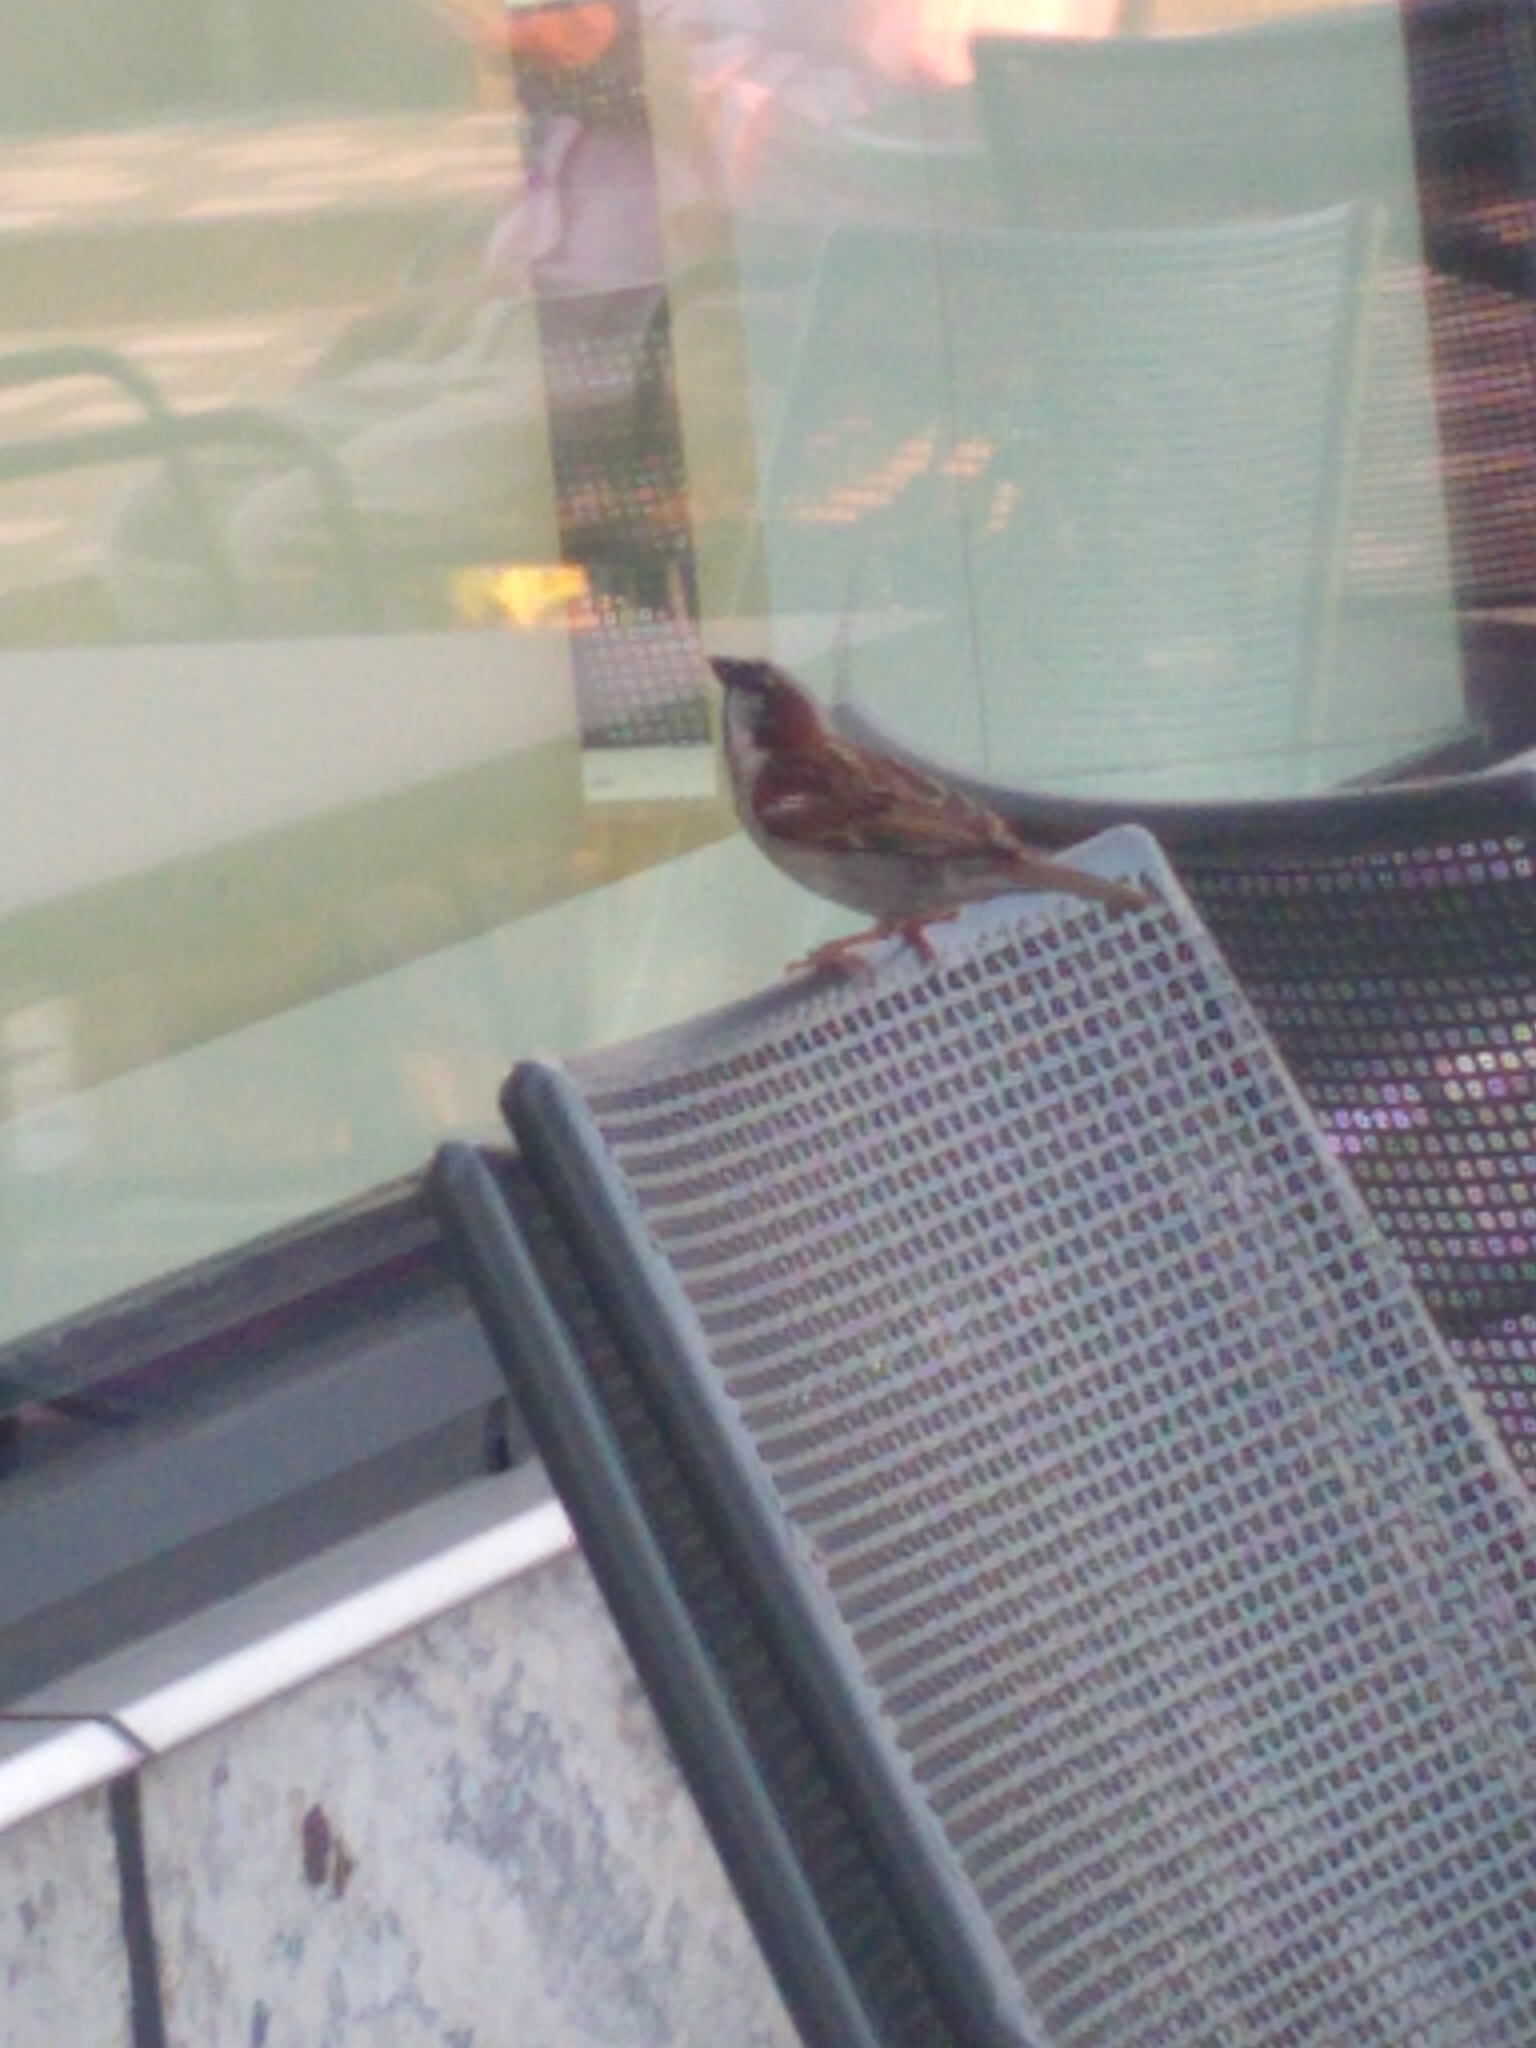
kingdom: Animalia
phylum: Chordata
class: Aves
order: Passeriformes
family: Passeridae
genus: Passer
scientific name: Passer domesticus
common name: House sparrow
